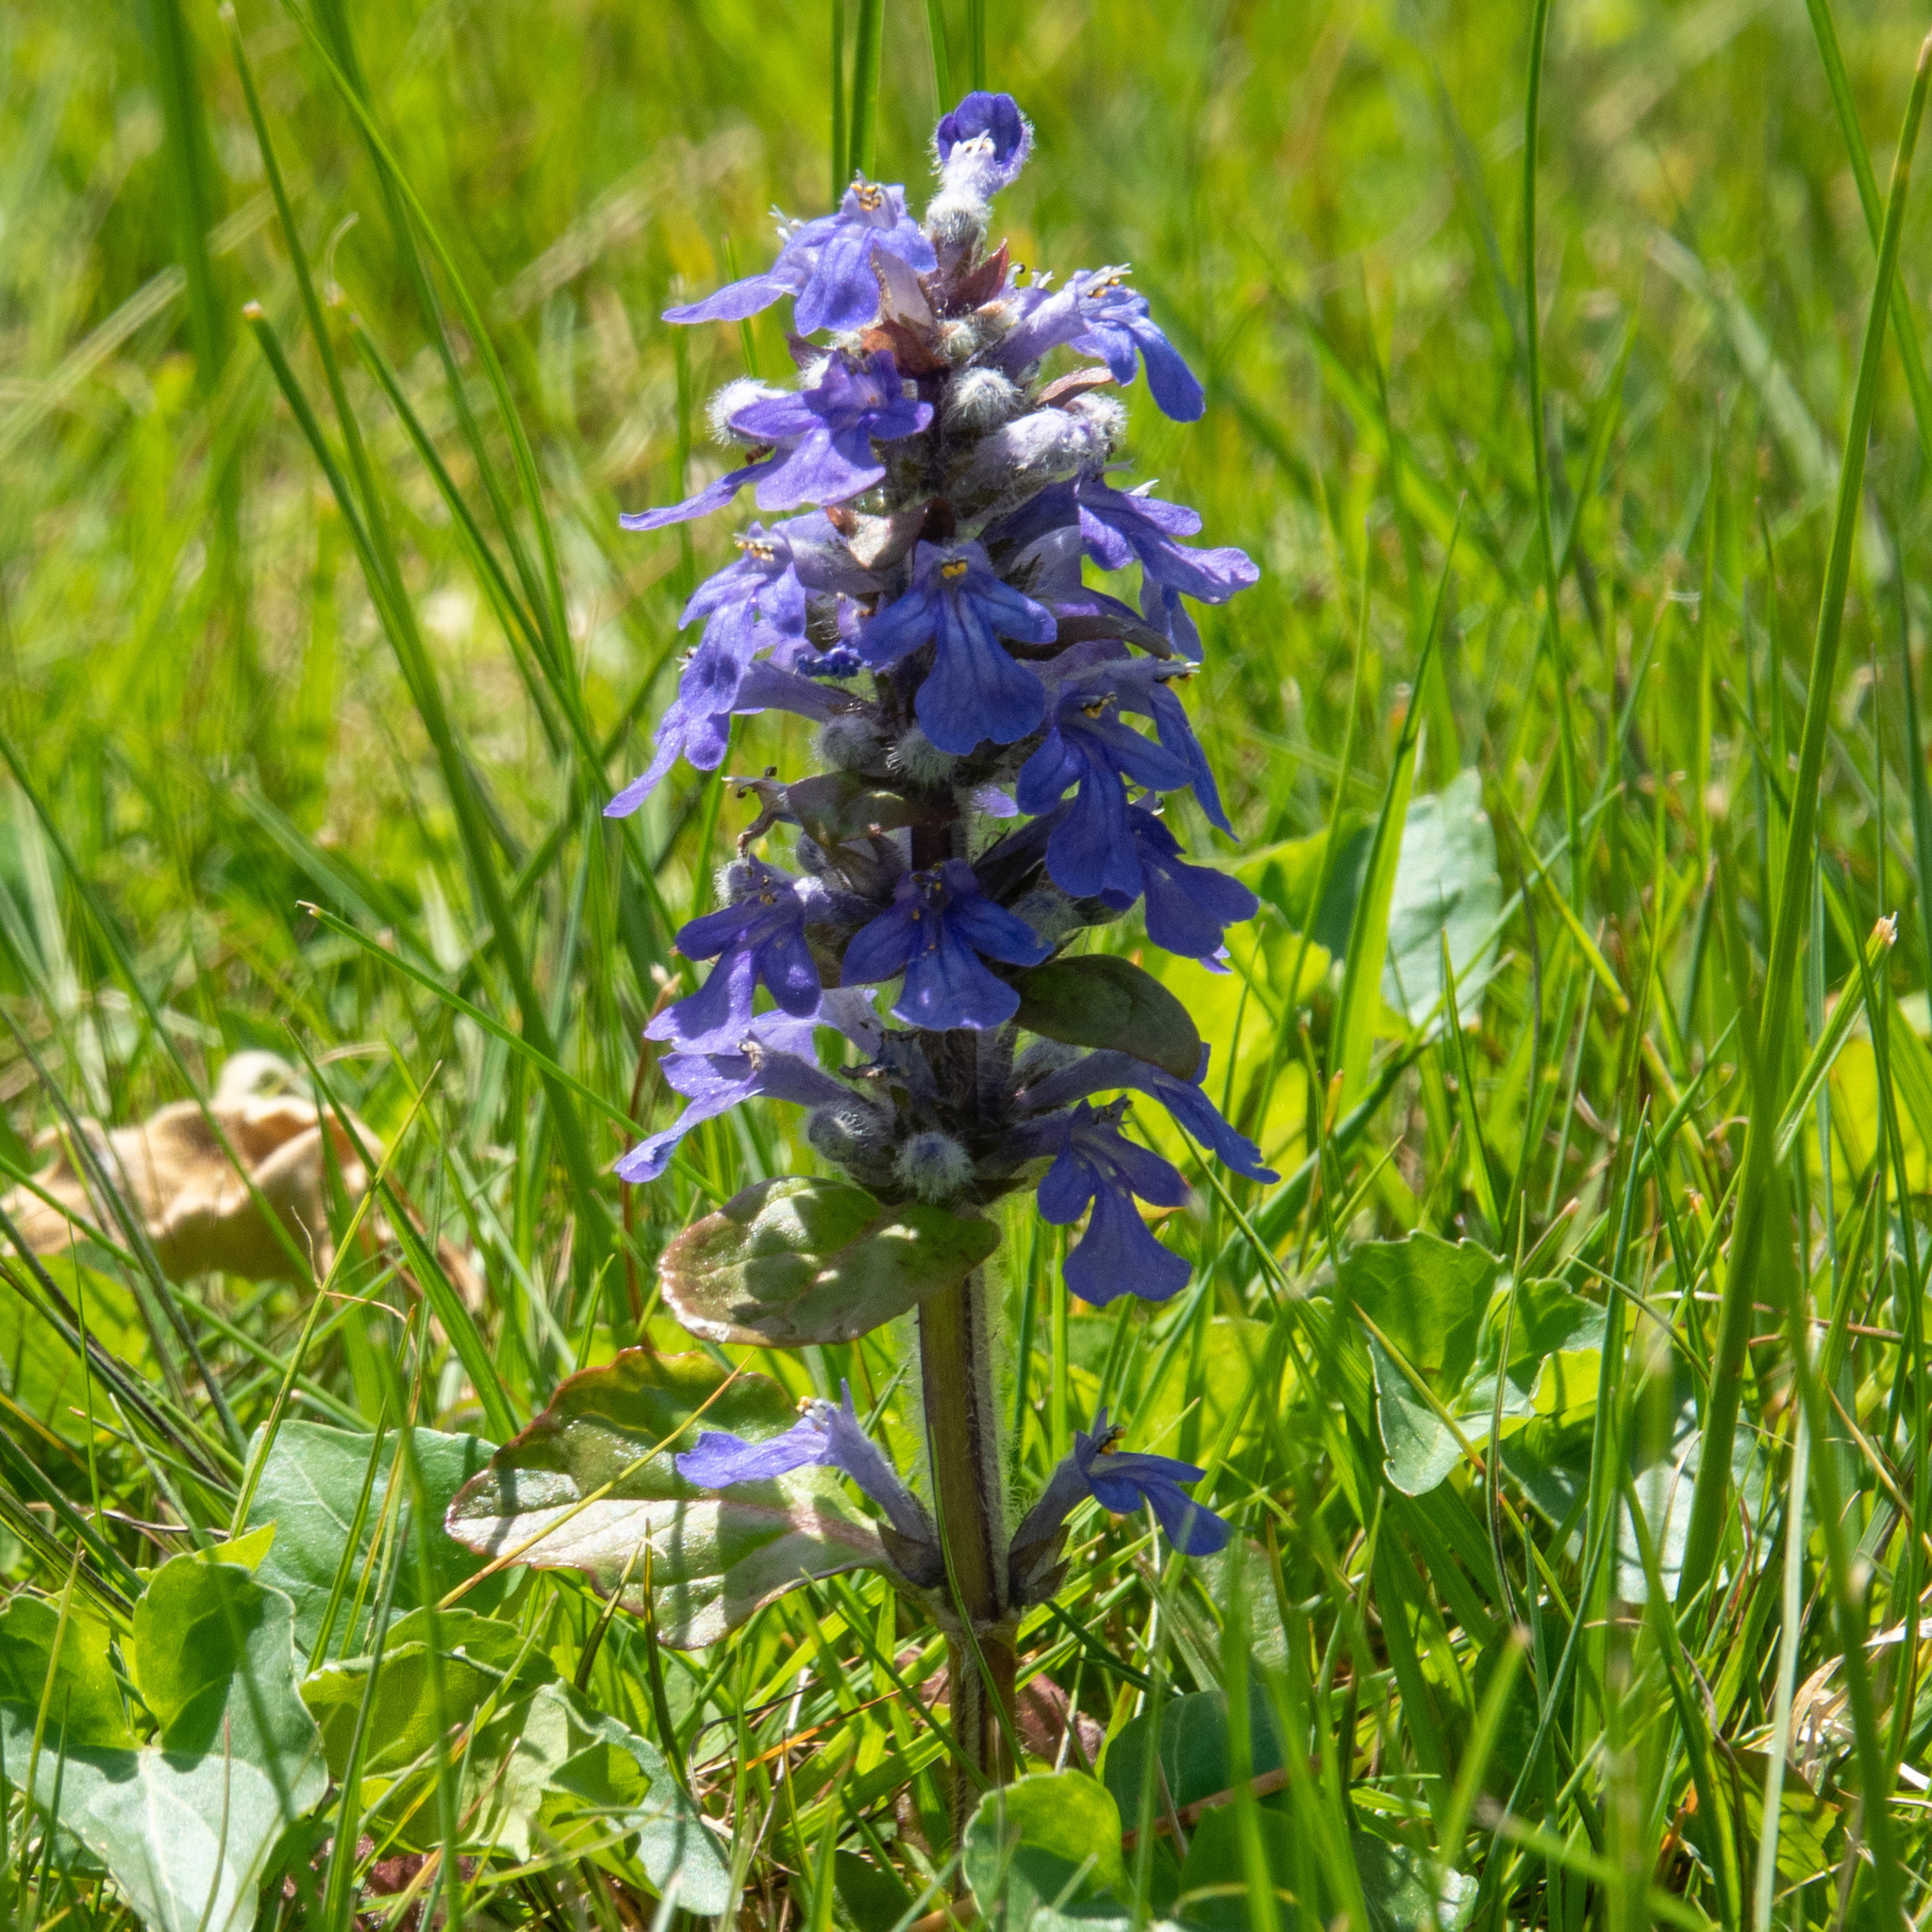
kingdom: Plantae
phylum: Tracheophyta
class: Magnoliopsida
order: Lamiales
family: Lamiaceae
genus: Ajuga
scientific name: Ajuga reptans
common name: Bugle
